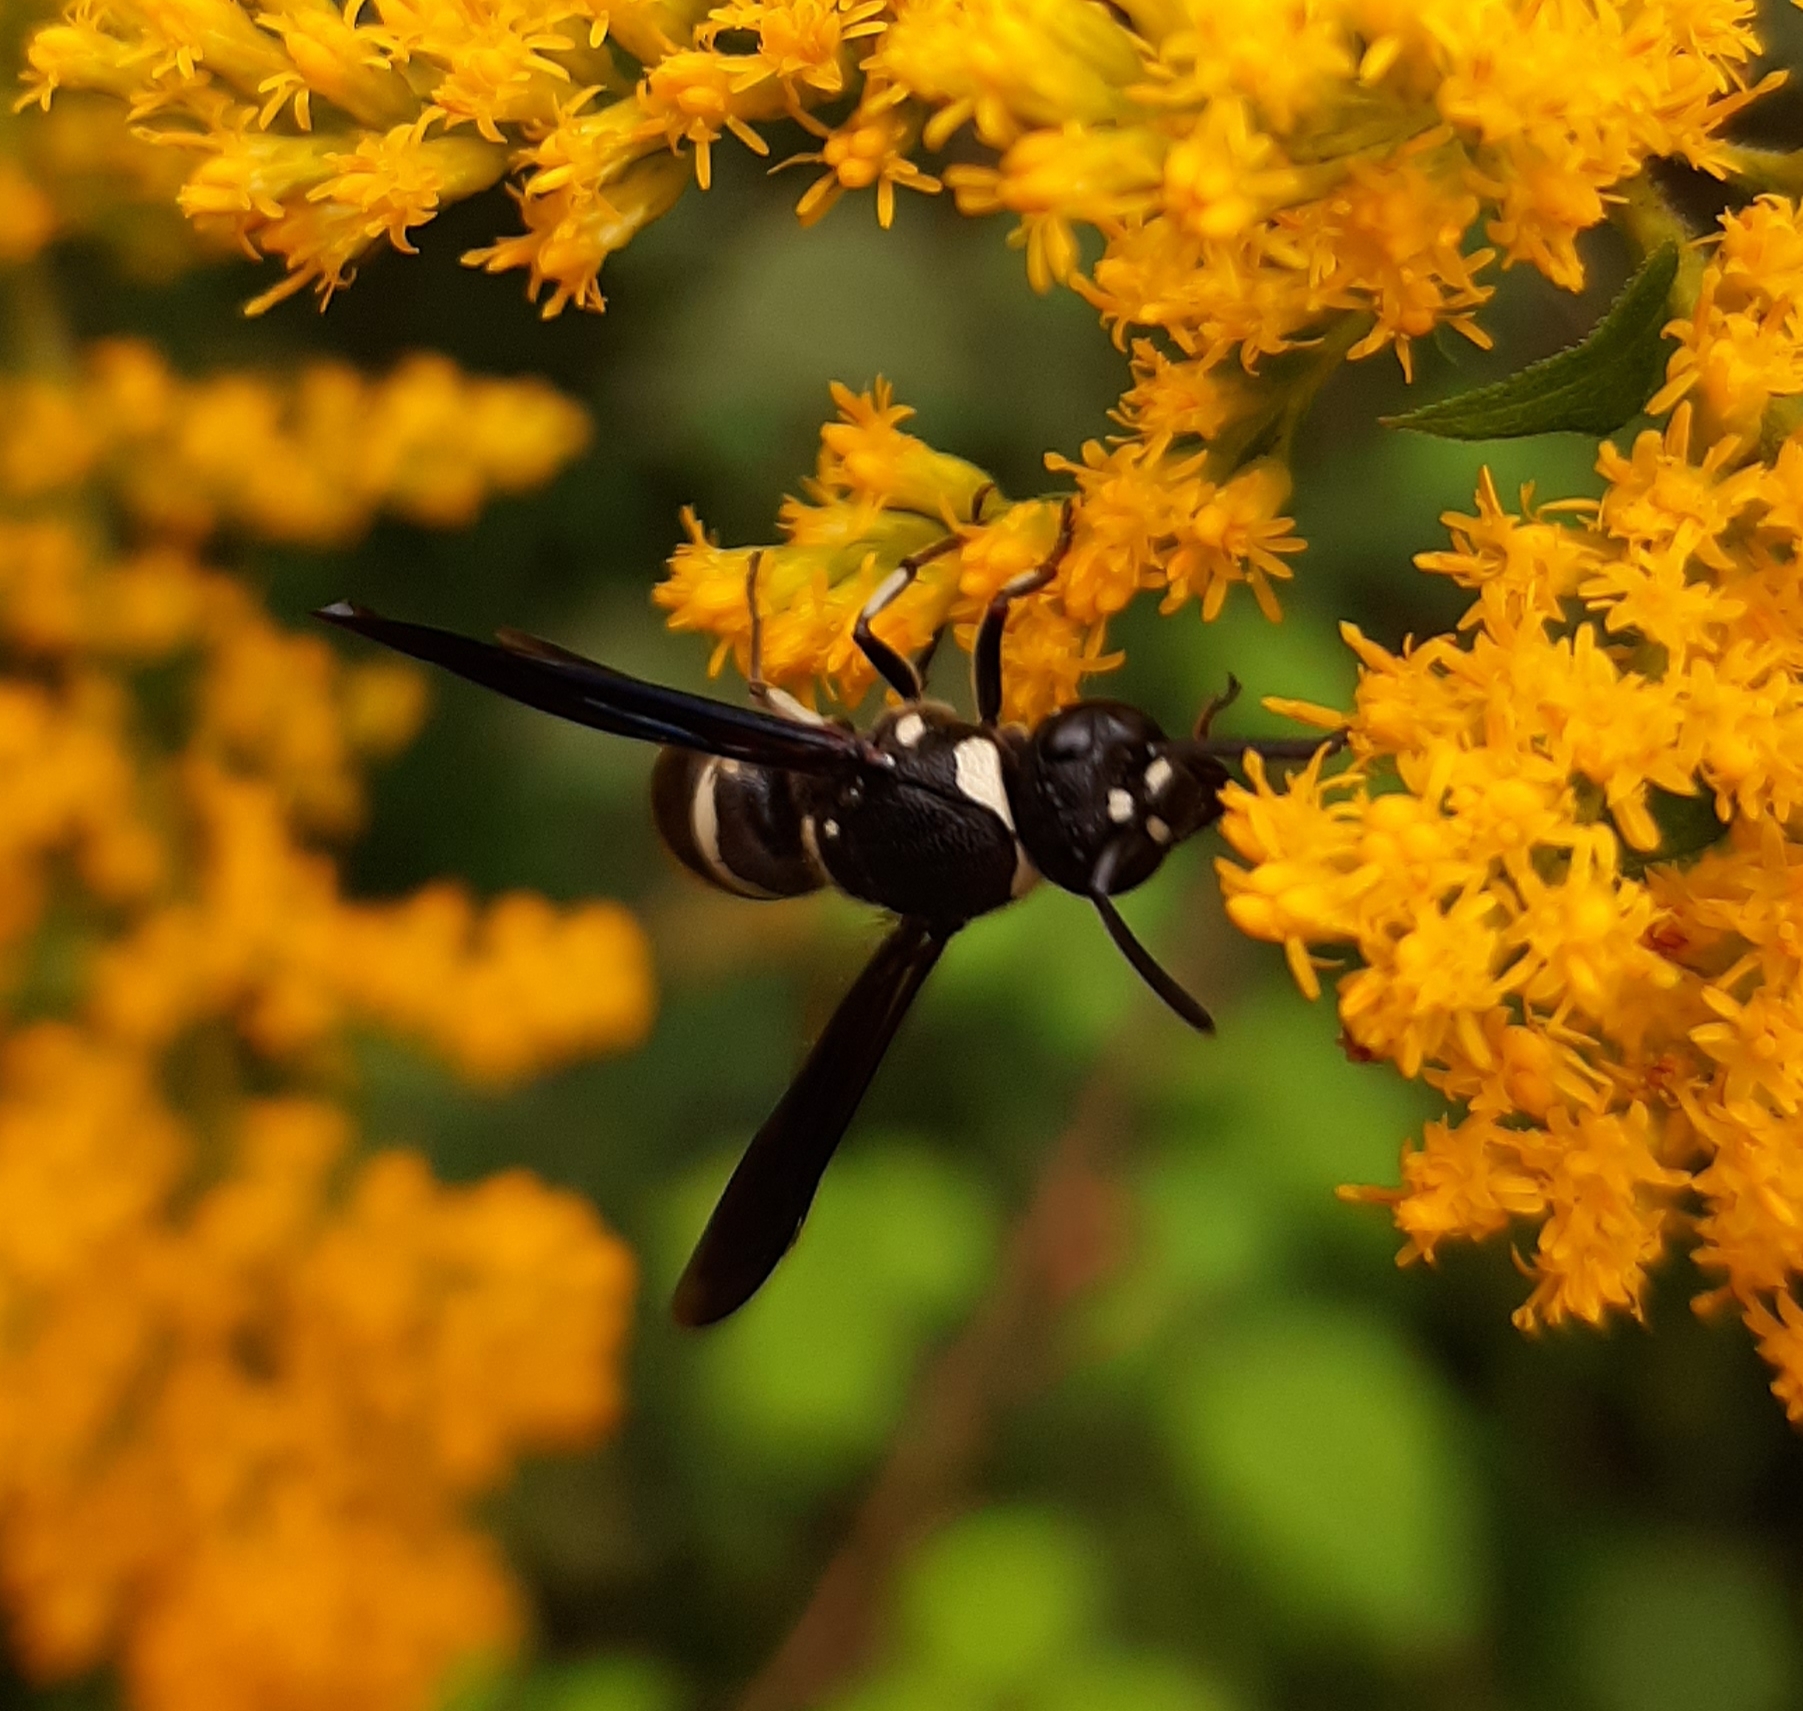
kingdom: Animalia
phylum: Arthropoda
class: Insecta
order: Hymenoptera
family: Eumenidae
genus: Euodynerus
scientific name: Euodynerus schwarzi
